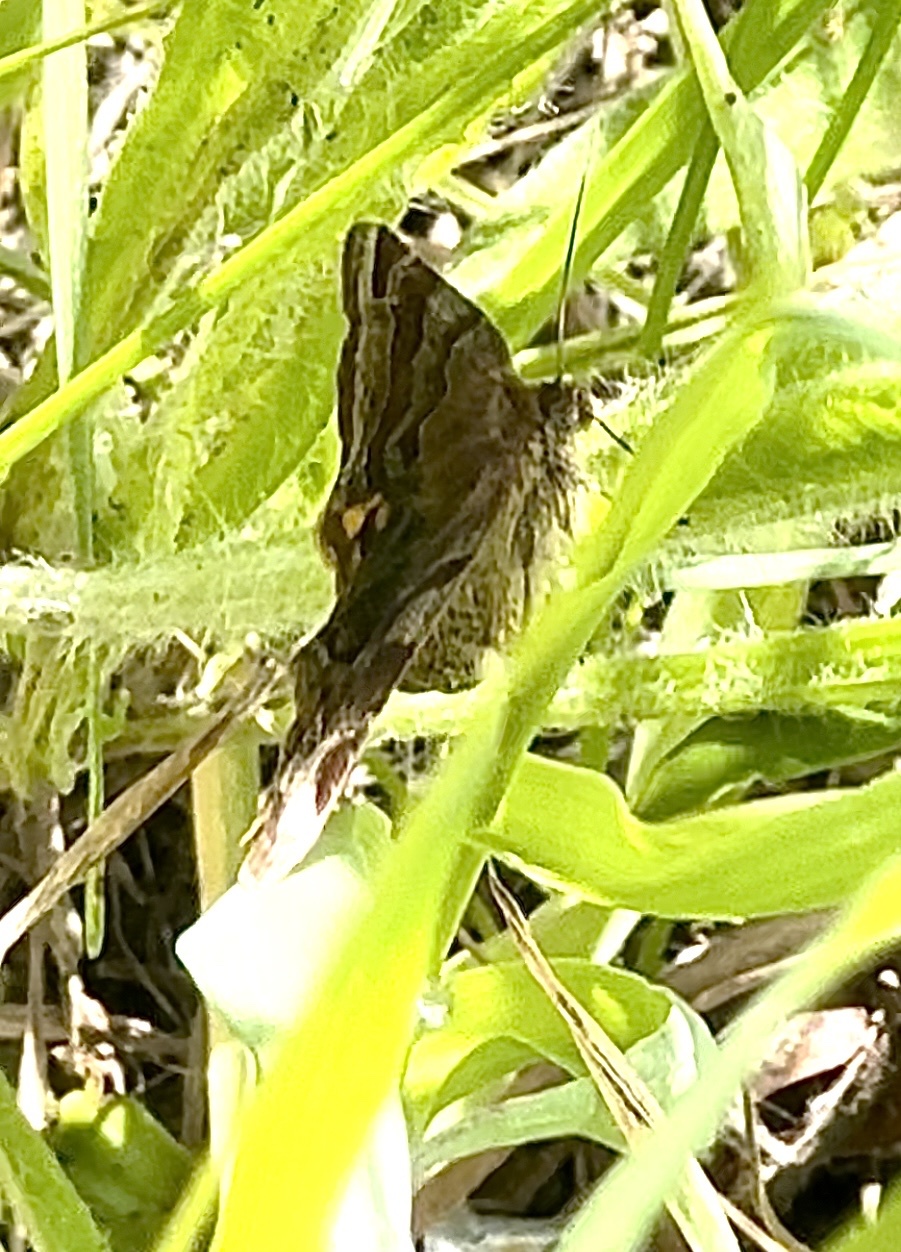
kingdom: Animalia
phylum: Arthropoda
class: Insecta
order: Lepidoptera
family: Erebidae
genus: Euclidia
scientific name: Euclidia glyphica
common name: Burnet companion
